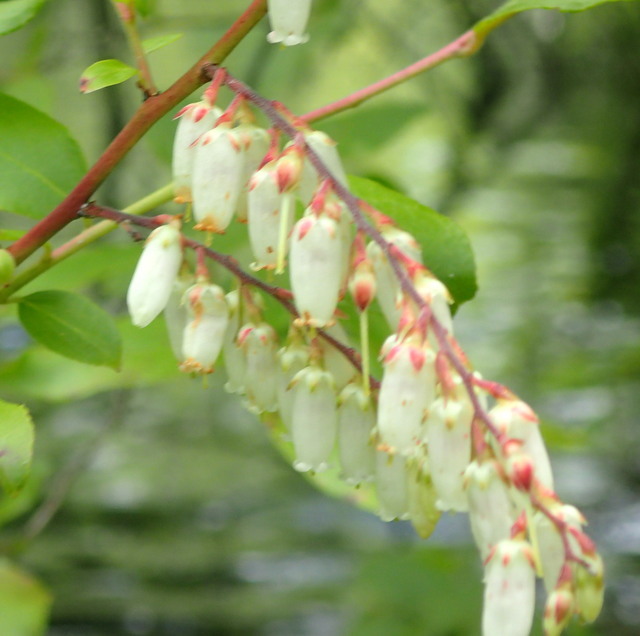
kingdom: Plantae
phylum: Tracheophyta
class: Magnoliopsida
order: Ericales
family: Ericaceae
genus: Eubotrys
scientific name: Eubotrys racemosa
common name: Fetterbush
